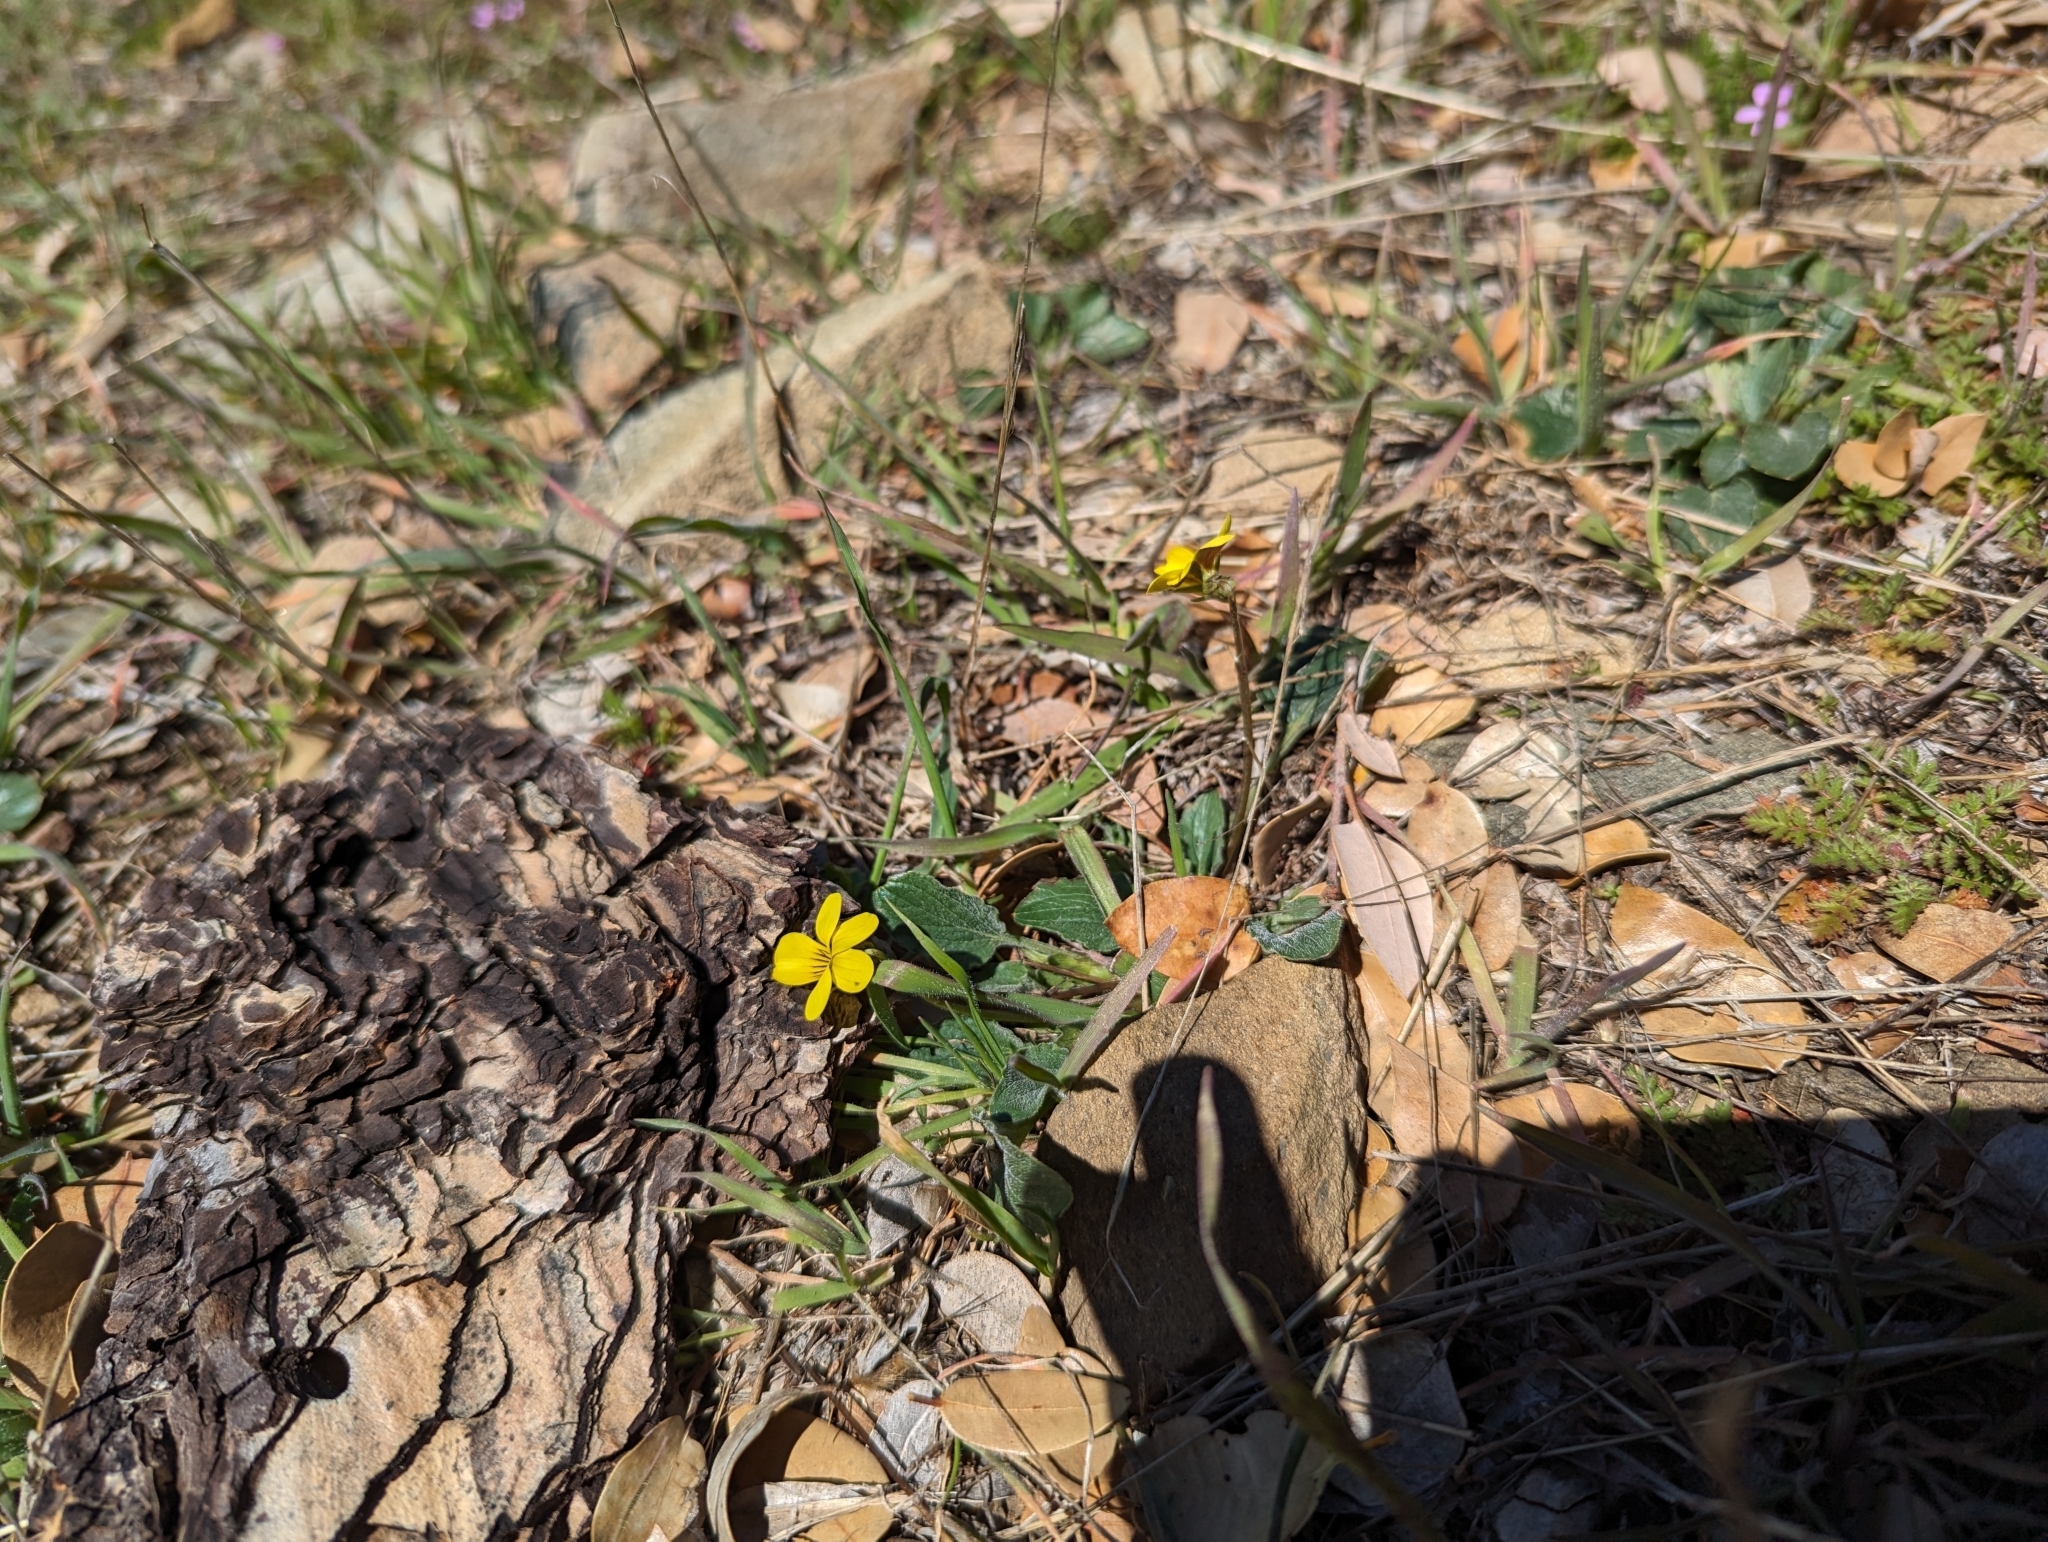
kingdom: Plantae
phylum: Tracheophyta
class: Magnoliopsida
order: Malpighiales
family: Violaceae
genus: Viola
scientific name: Viola purpurea
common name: Pine violet
